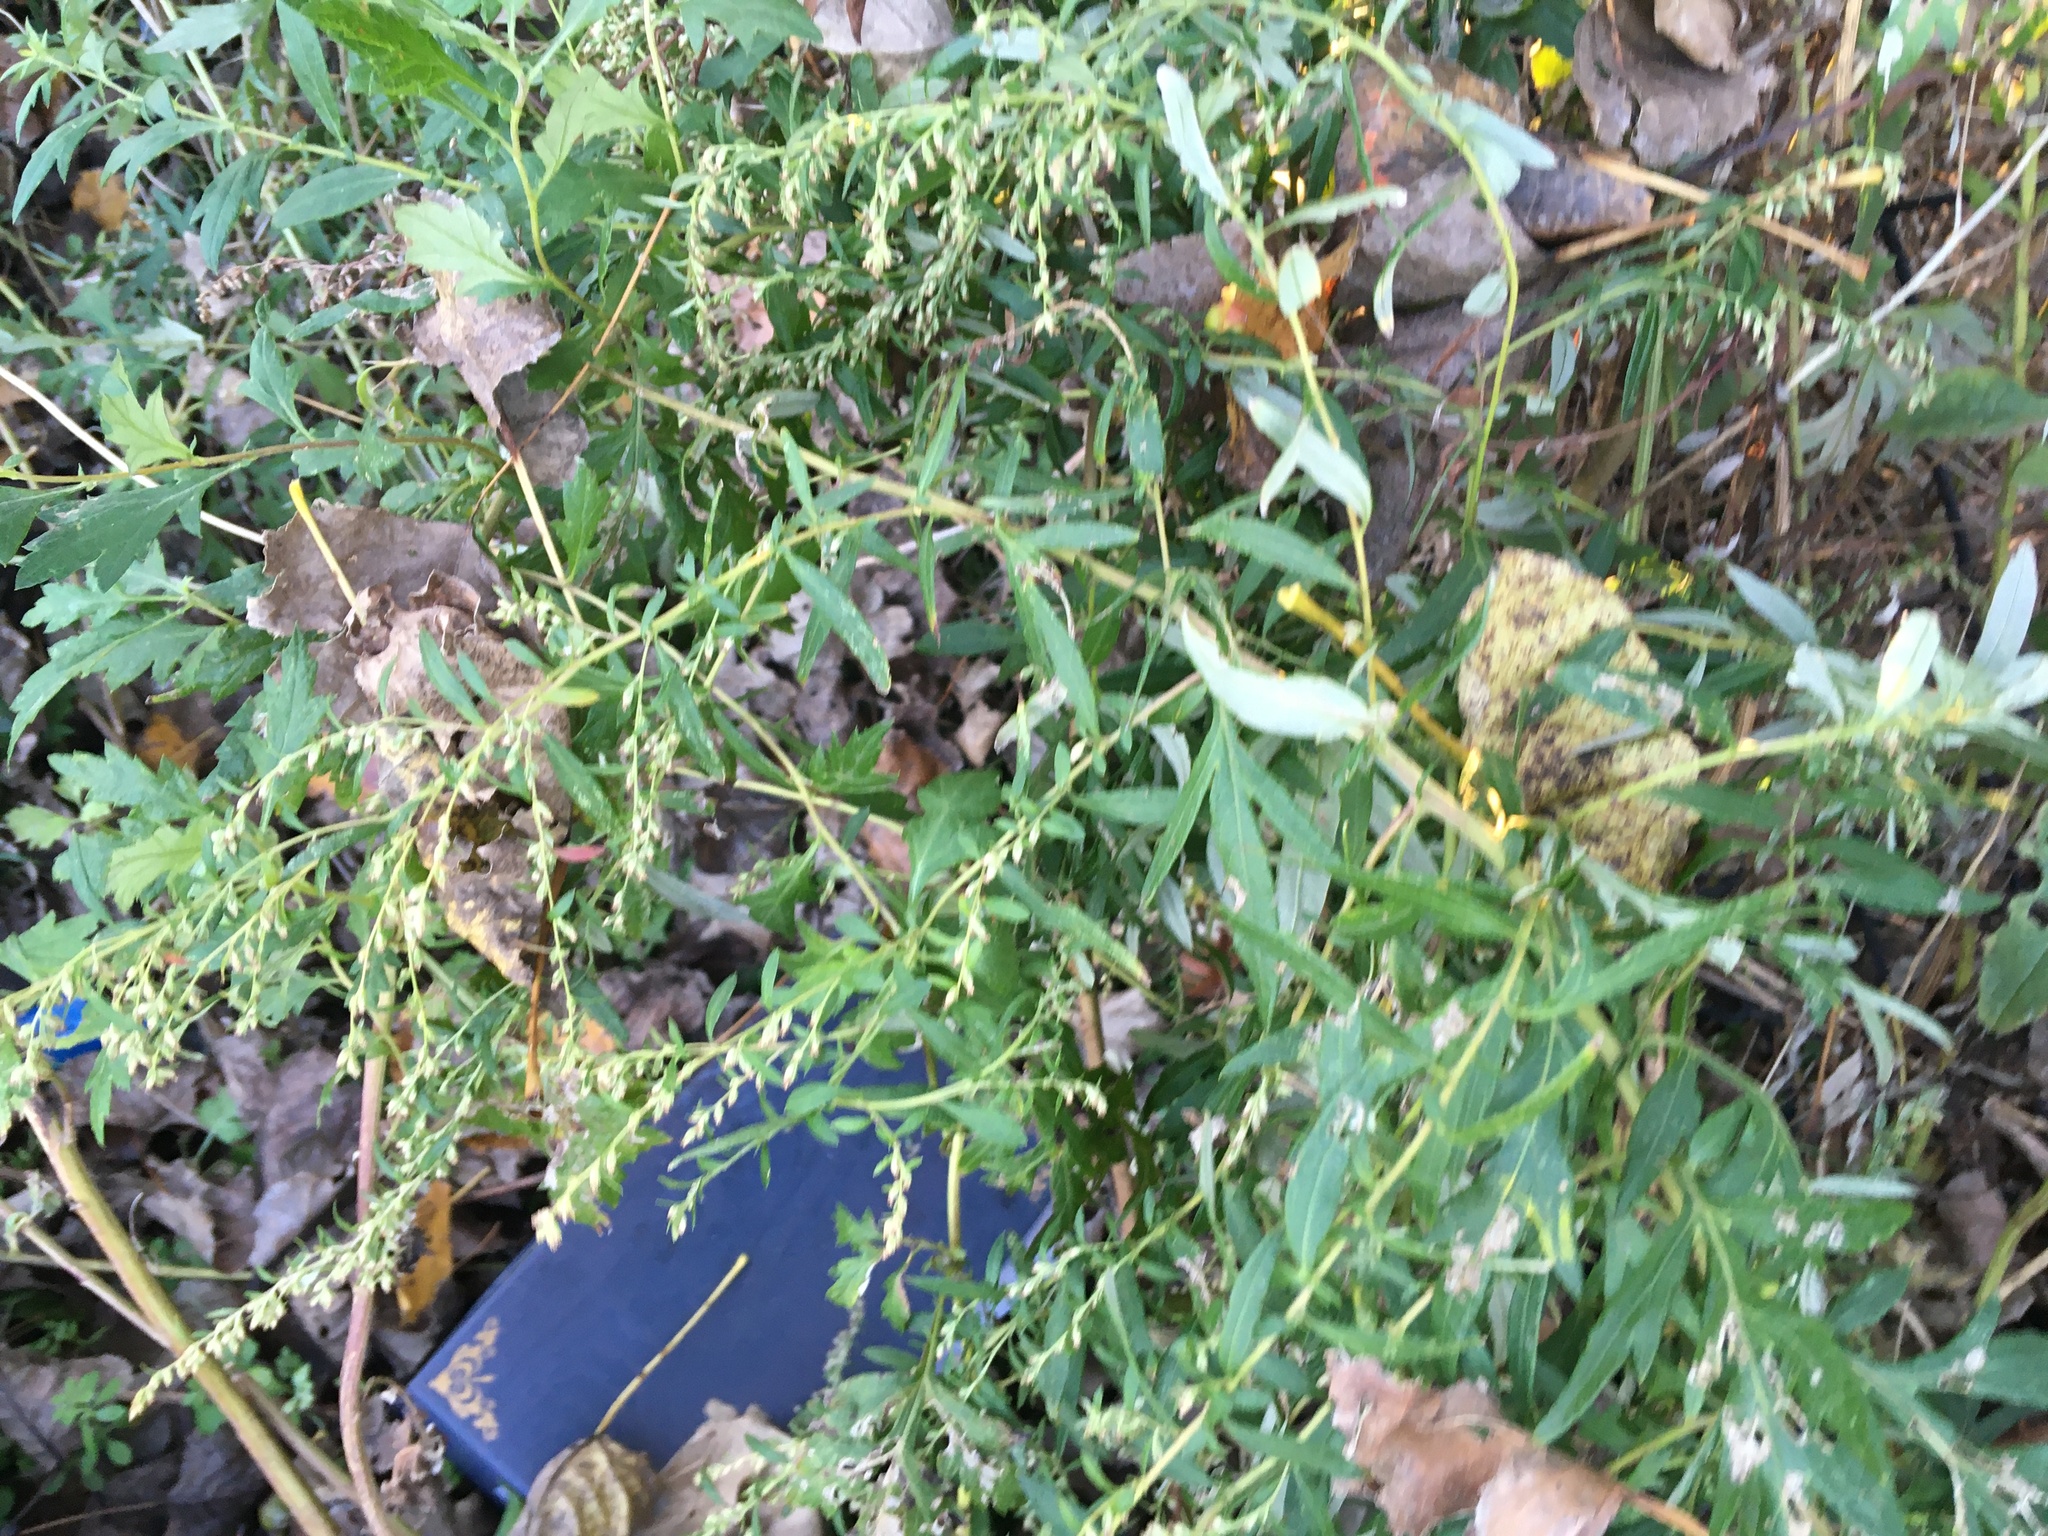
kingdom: Plantae
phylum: Tracheophyta
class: Magnoliopsida
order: Asterales
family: Asteraceae
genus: Artemisia
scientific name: Artemisia vulgaris
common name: Mugwort
